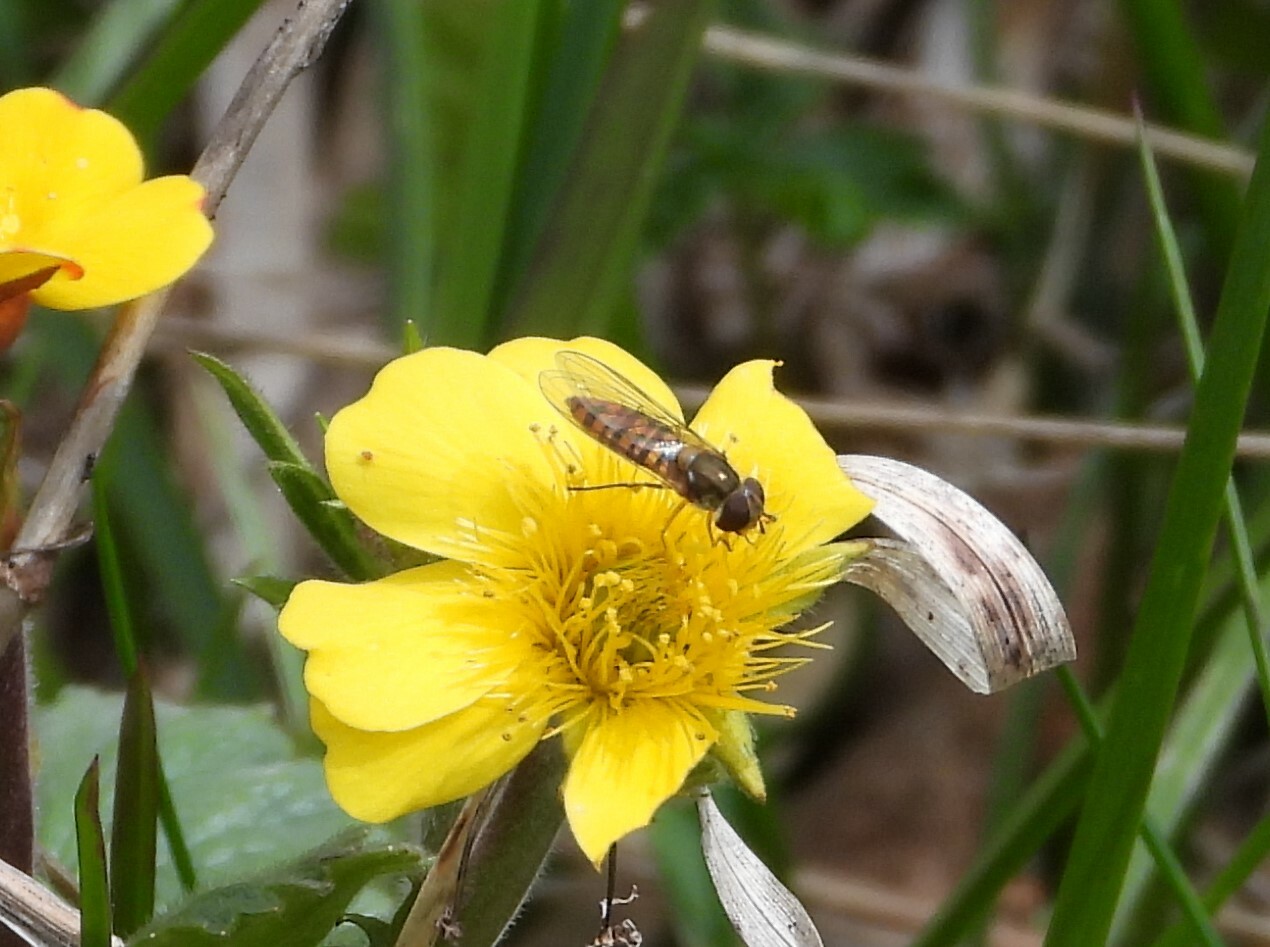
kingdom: Animalia
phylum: Arthropoda
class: Insecta
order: Diptera
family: Syrphidae
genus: Episyrphus
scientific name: Episyrphus balteatus
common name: Marmalade hoverfly
